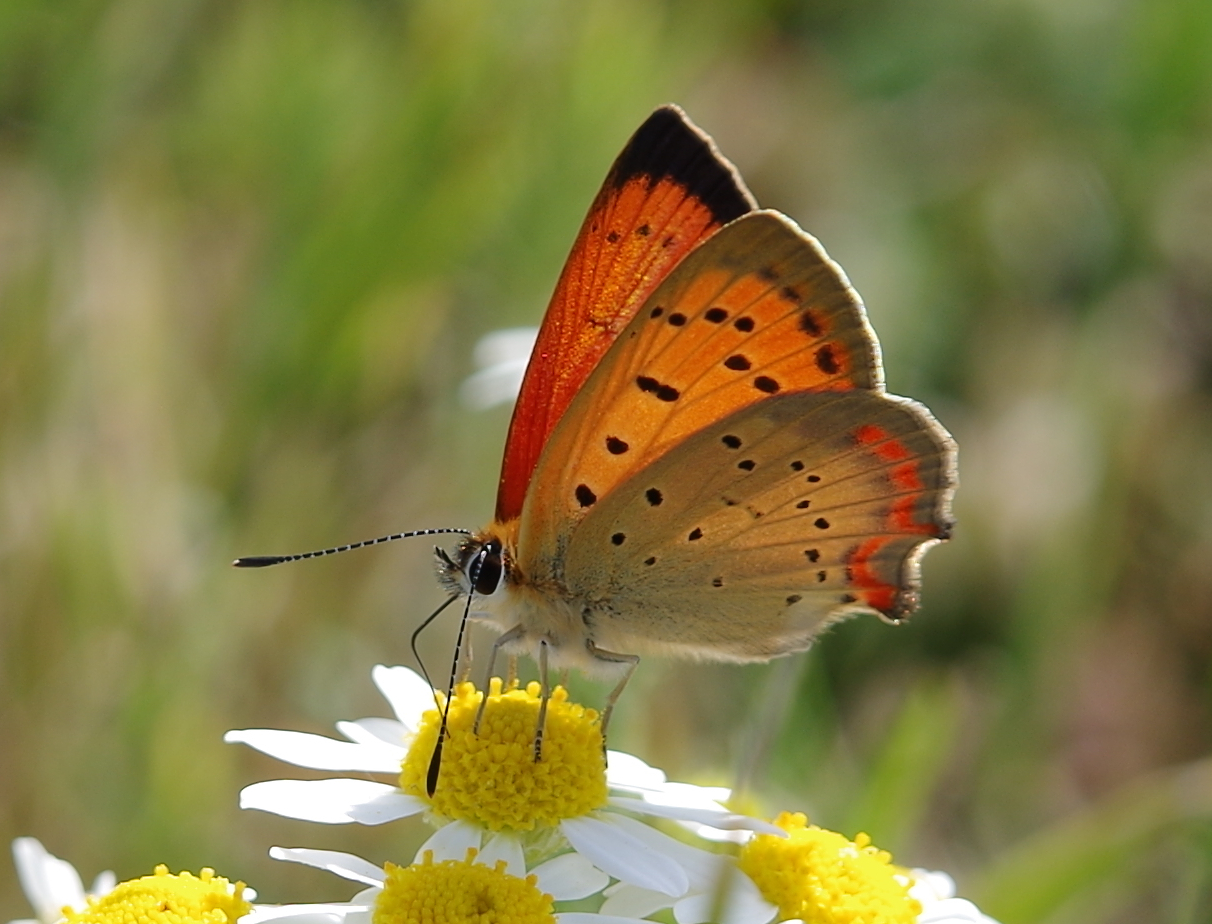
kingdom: Animalia
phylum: Arthropoda
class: Insecta
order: Lepidoptera
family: Lycaenidae
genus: Polyommatus
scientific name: Polyommatus ottomanus
